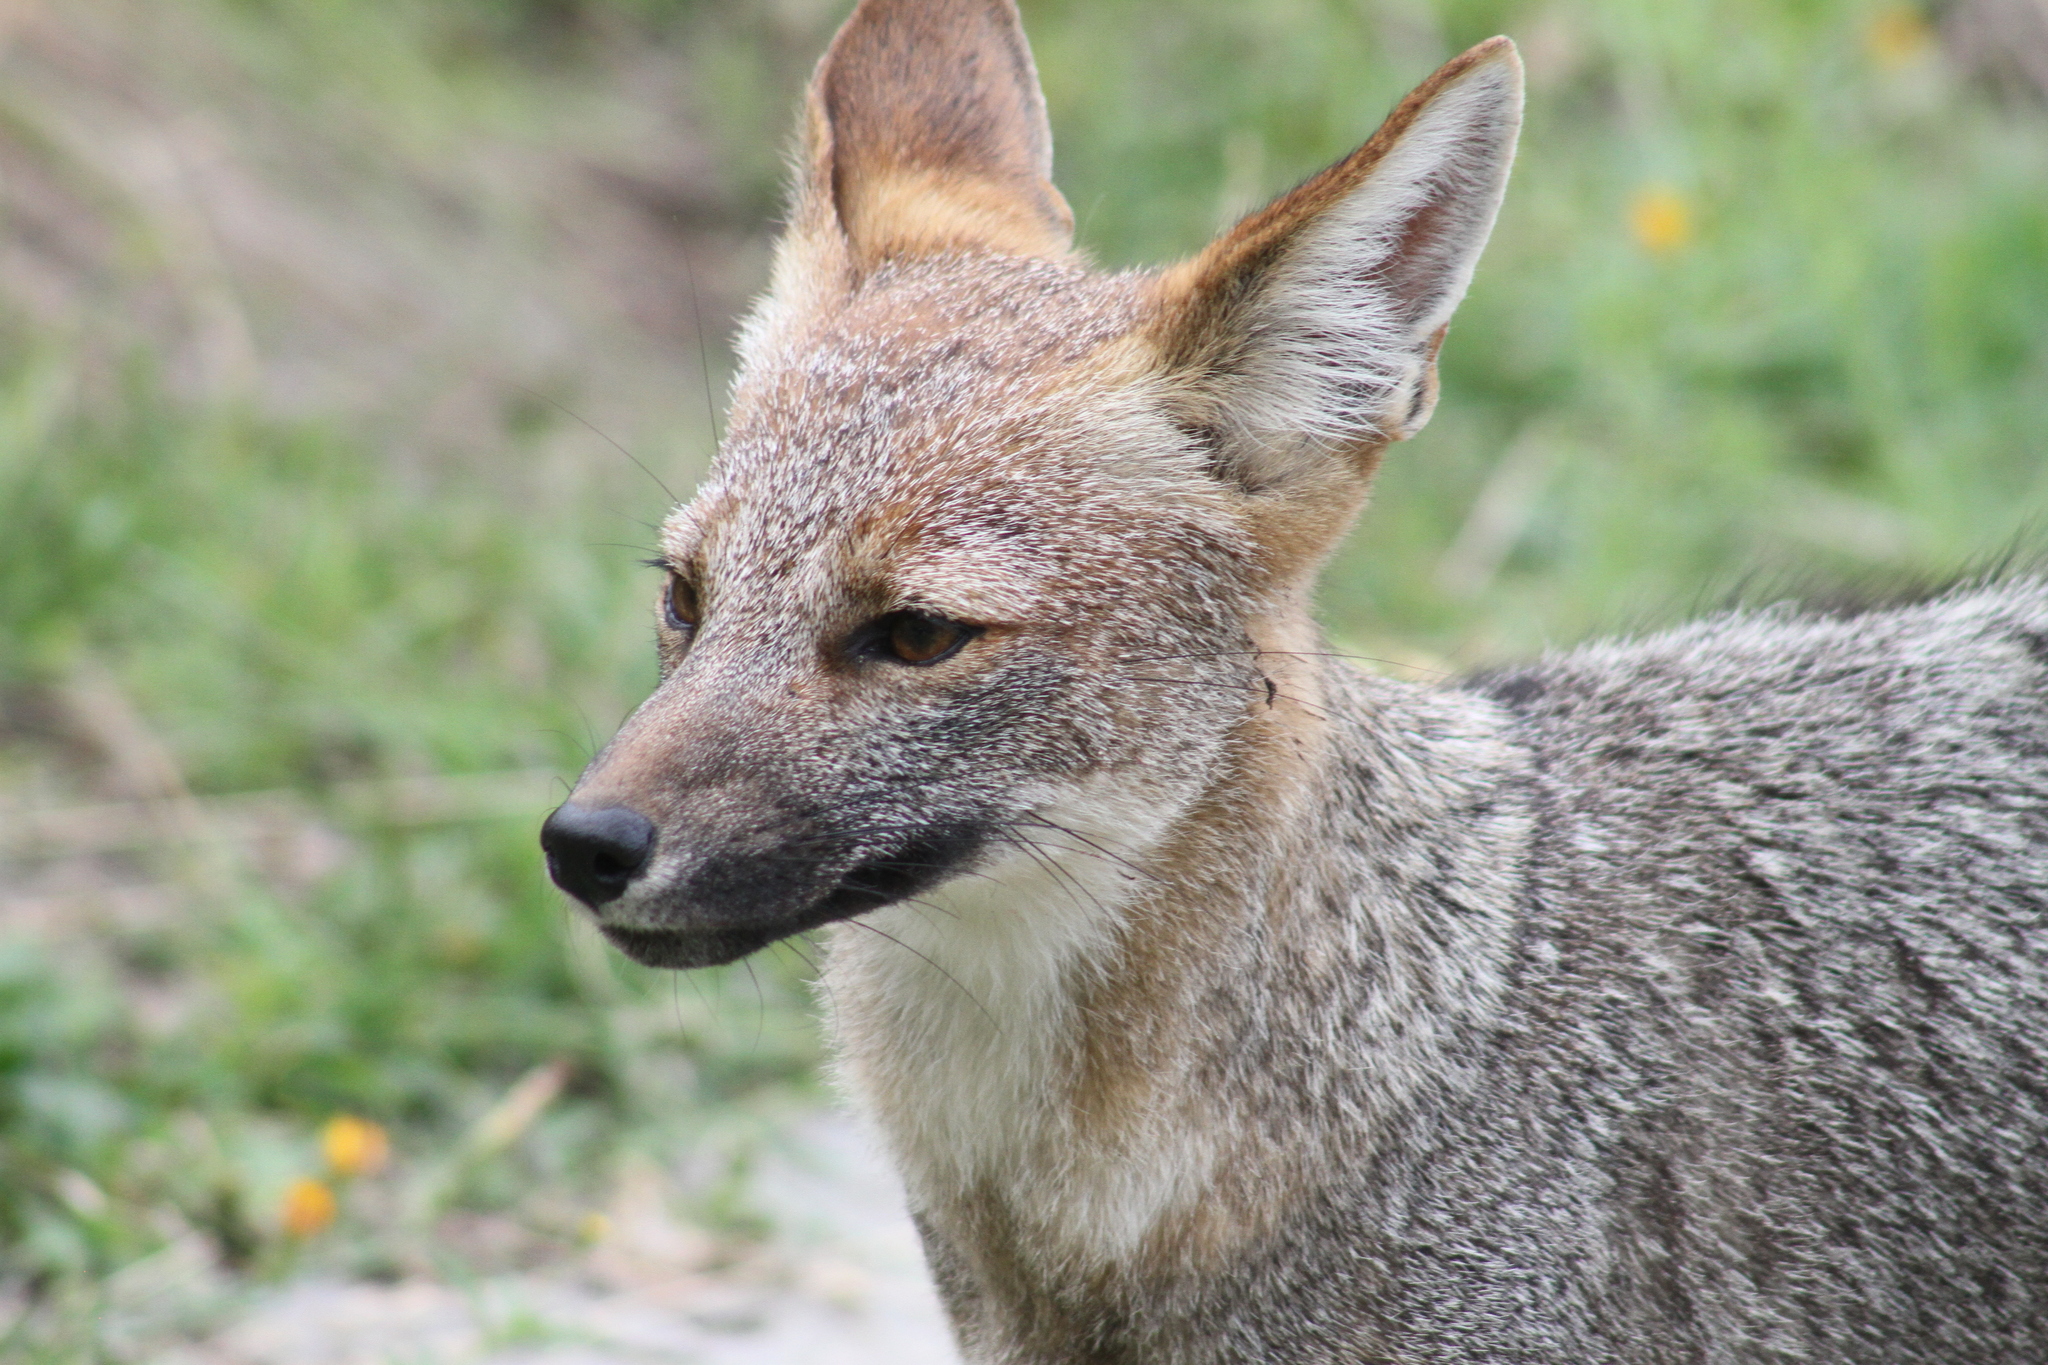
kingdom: Animalia
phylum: Chordata
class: Mammalia
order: Carnivora
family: Canidae
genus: Lycalopex
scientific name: Lycalopex gymnocercus
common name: Pampas fox
